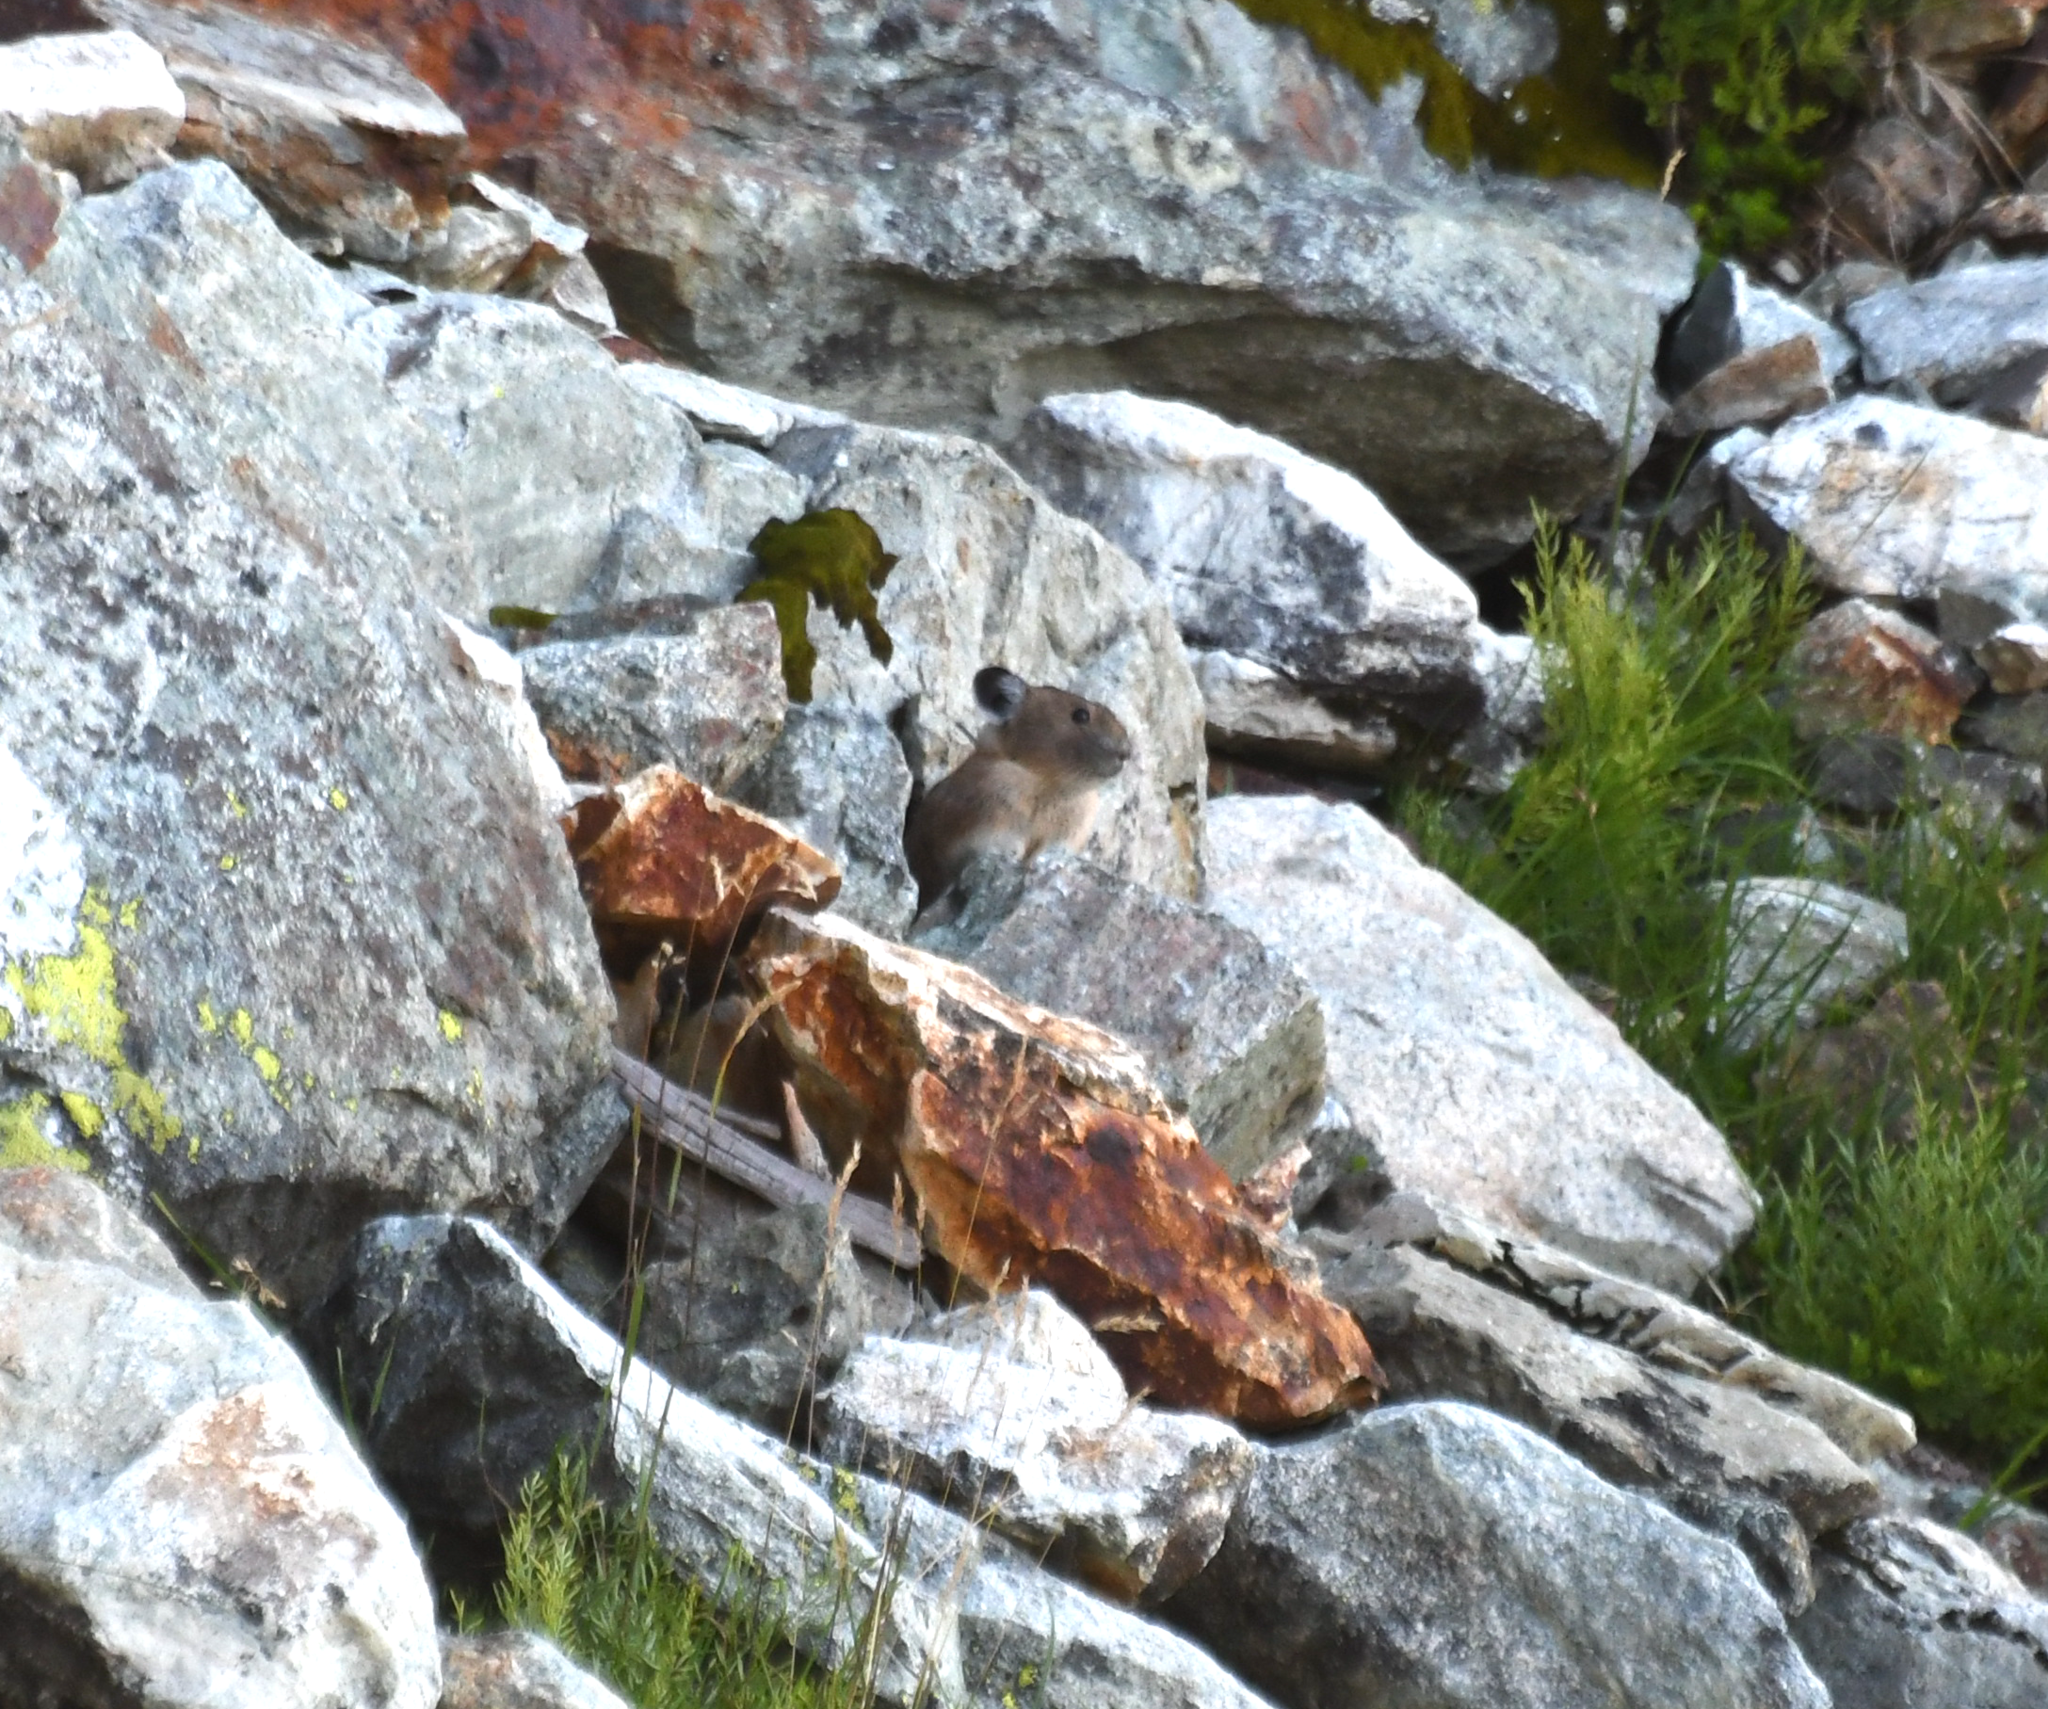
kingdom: Animalia
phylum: Chordata
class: Mammalia
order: Lagomorpha
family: Ochotonidae
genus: Ochotona
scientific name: Ochotona princeps
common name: American pika
